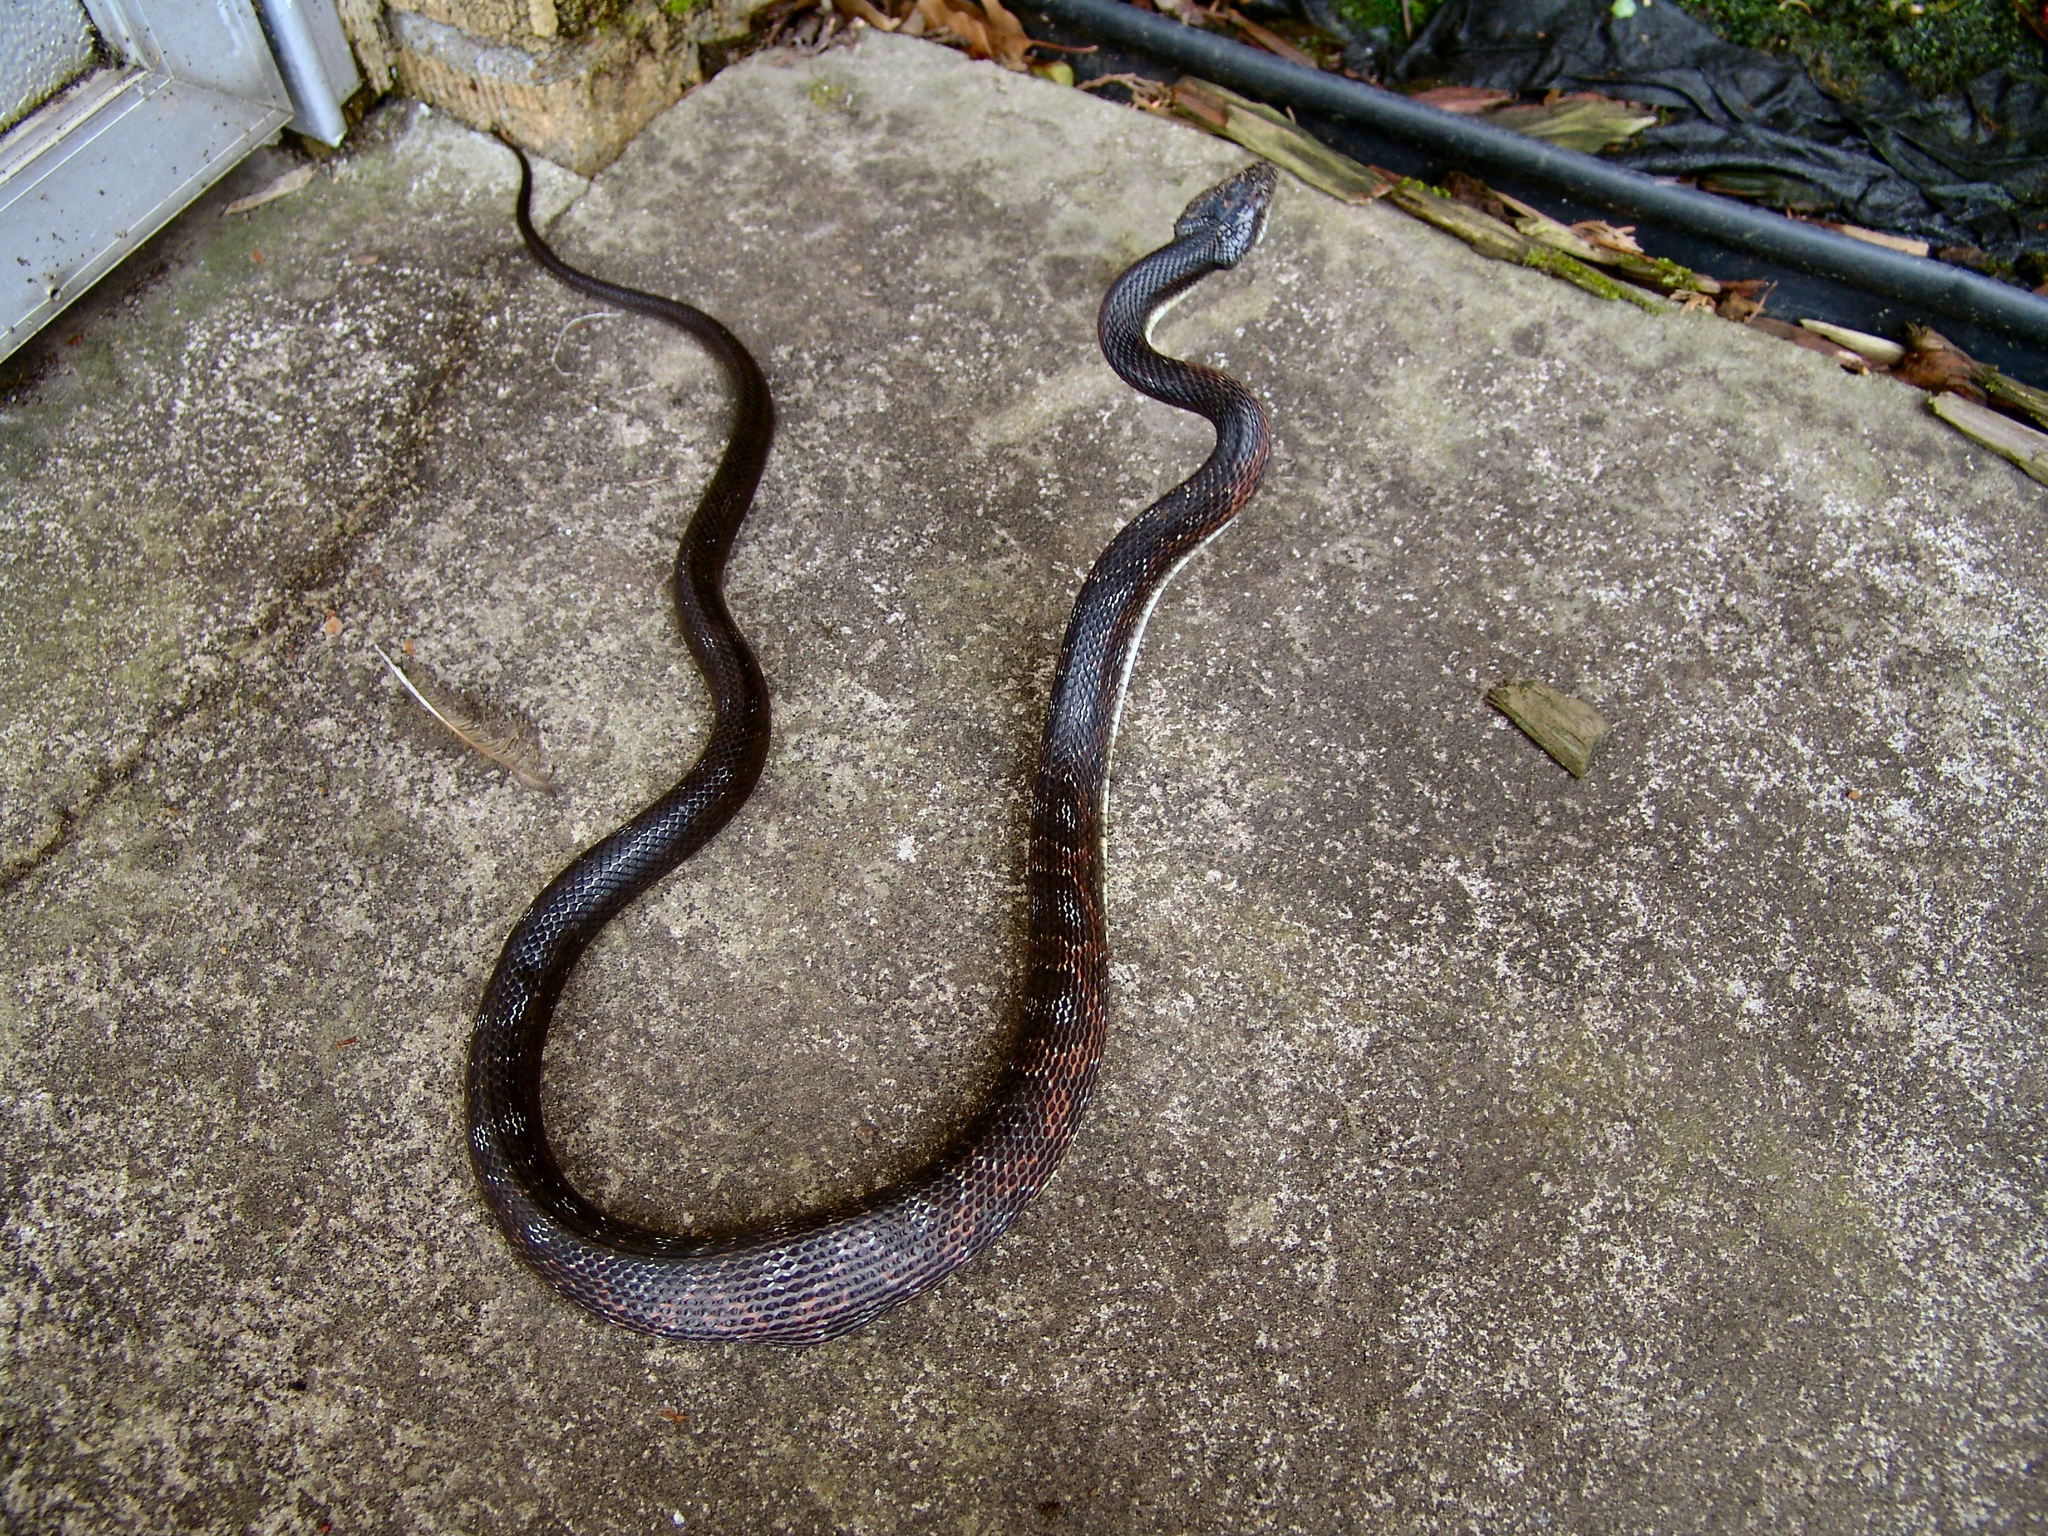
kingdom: Animalia
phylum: Chordata
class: Squamata
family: Colubridae
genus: Pantherophis
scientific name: Pantherophis obsoletus
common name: Black rat snake
